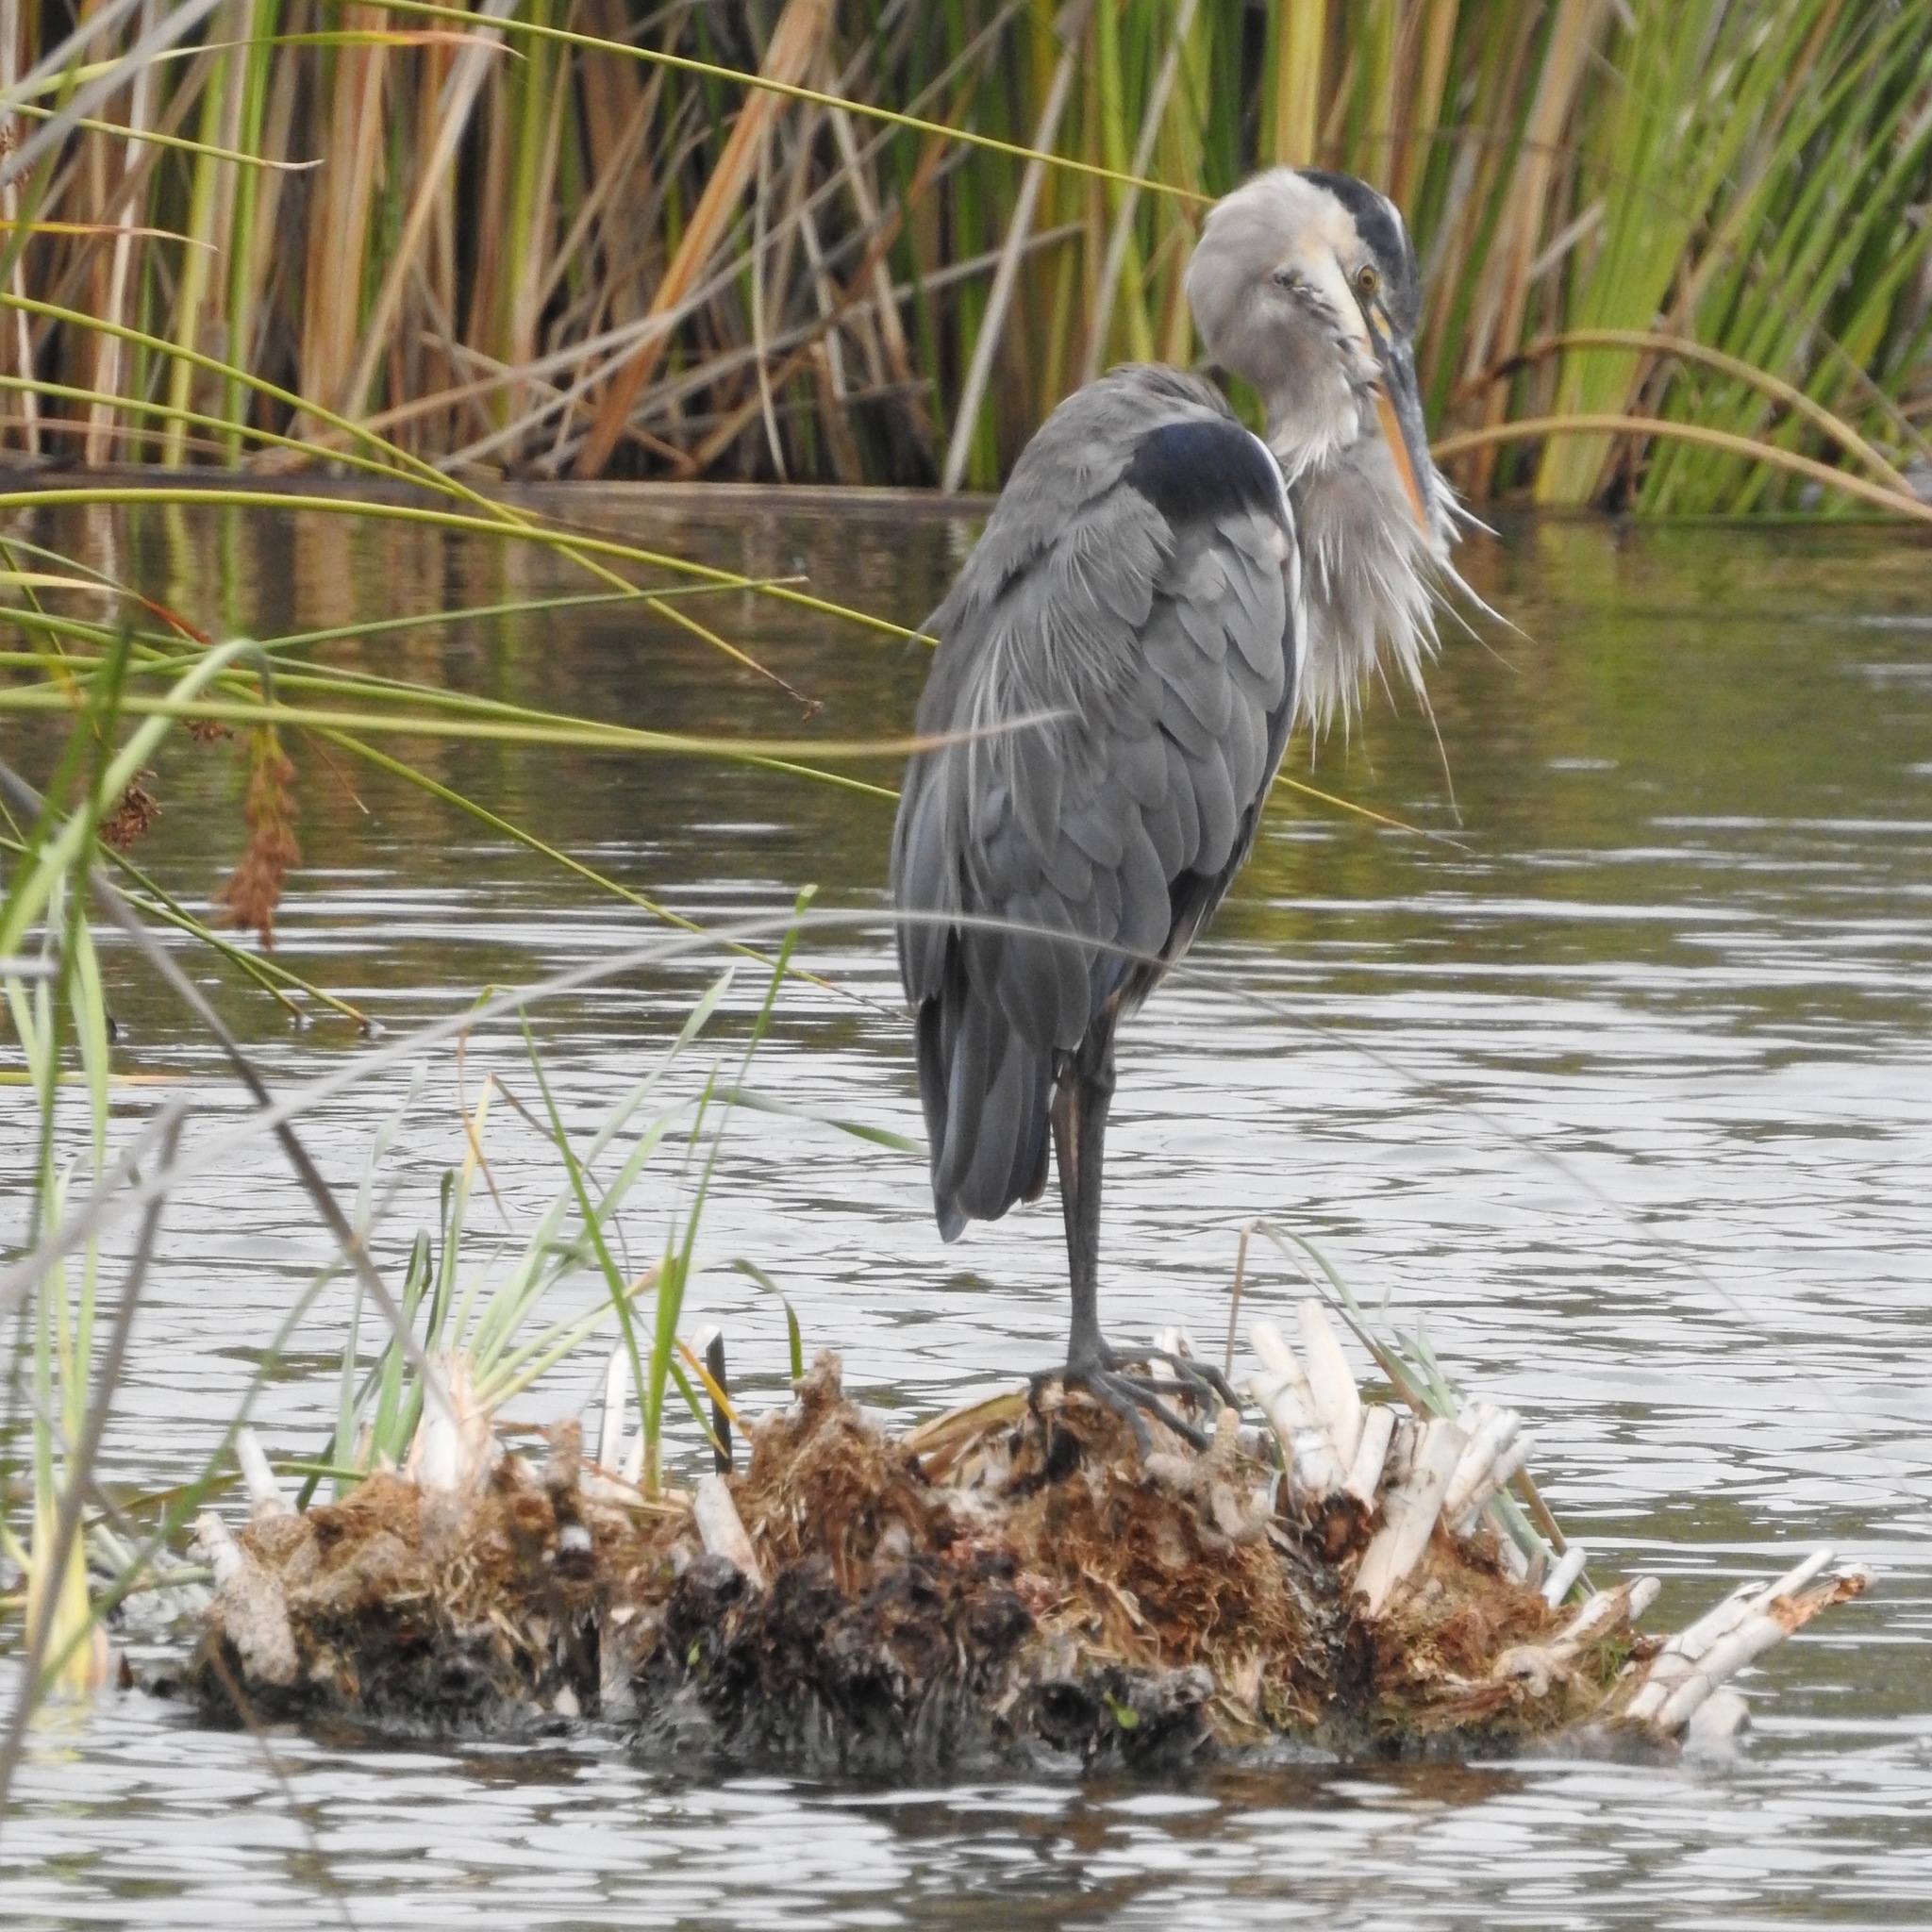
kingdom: Animalia
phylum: Chordata
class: Aves
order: Pelecaniformes
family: Ardeidae
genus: Ardea
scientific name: Ardea herodias
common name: Great blue heron
